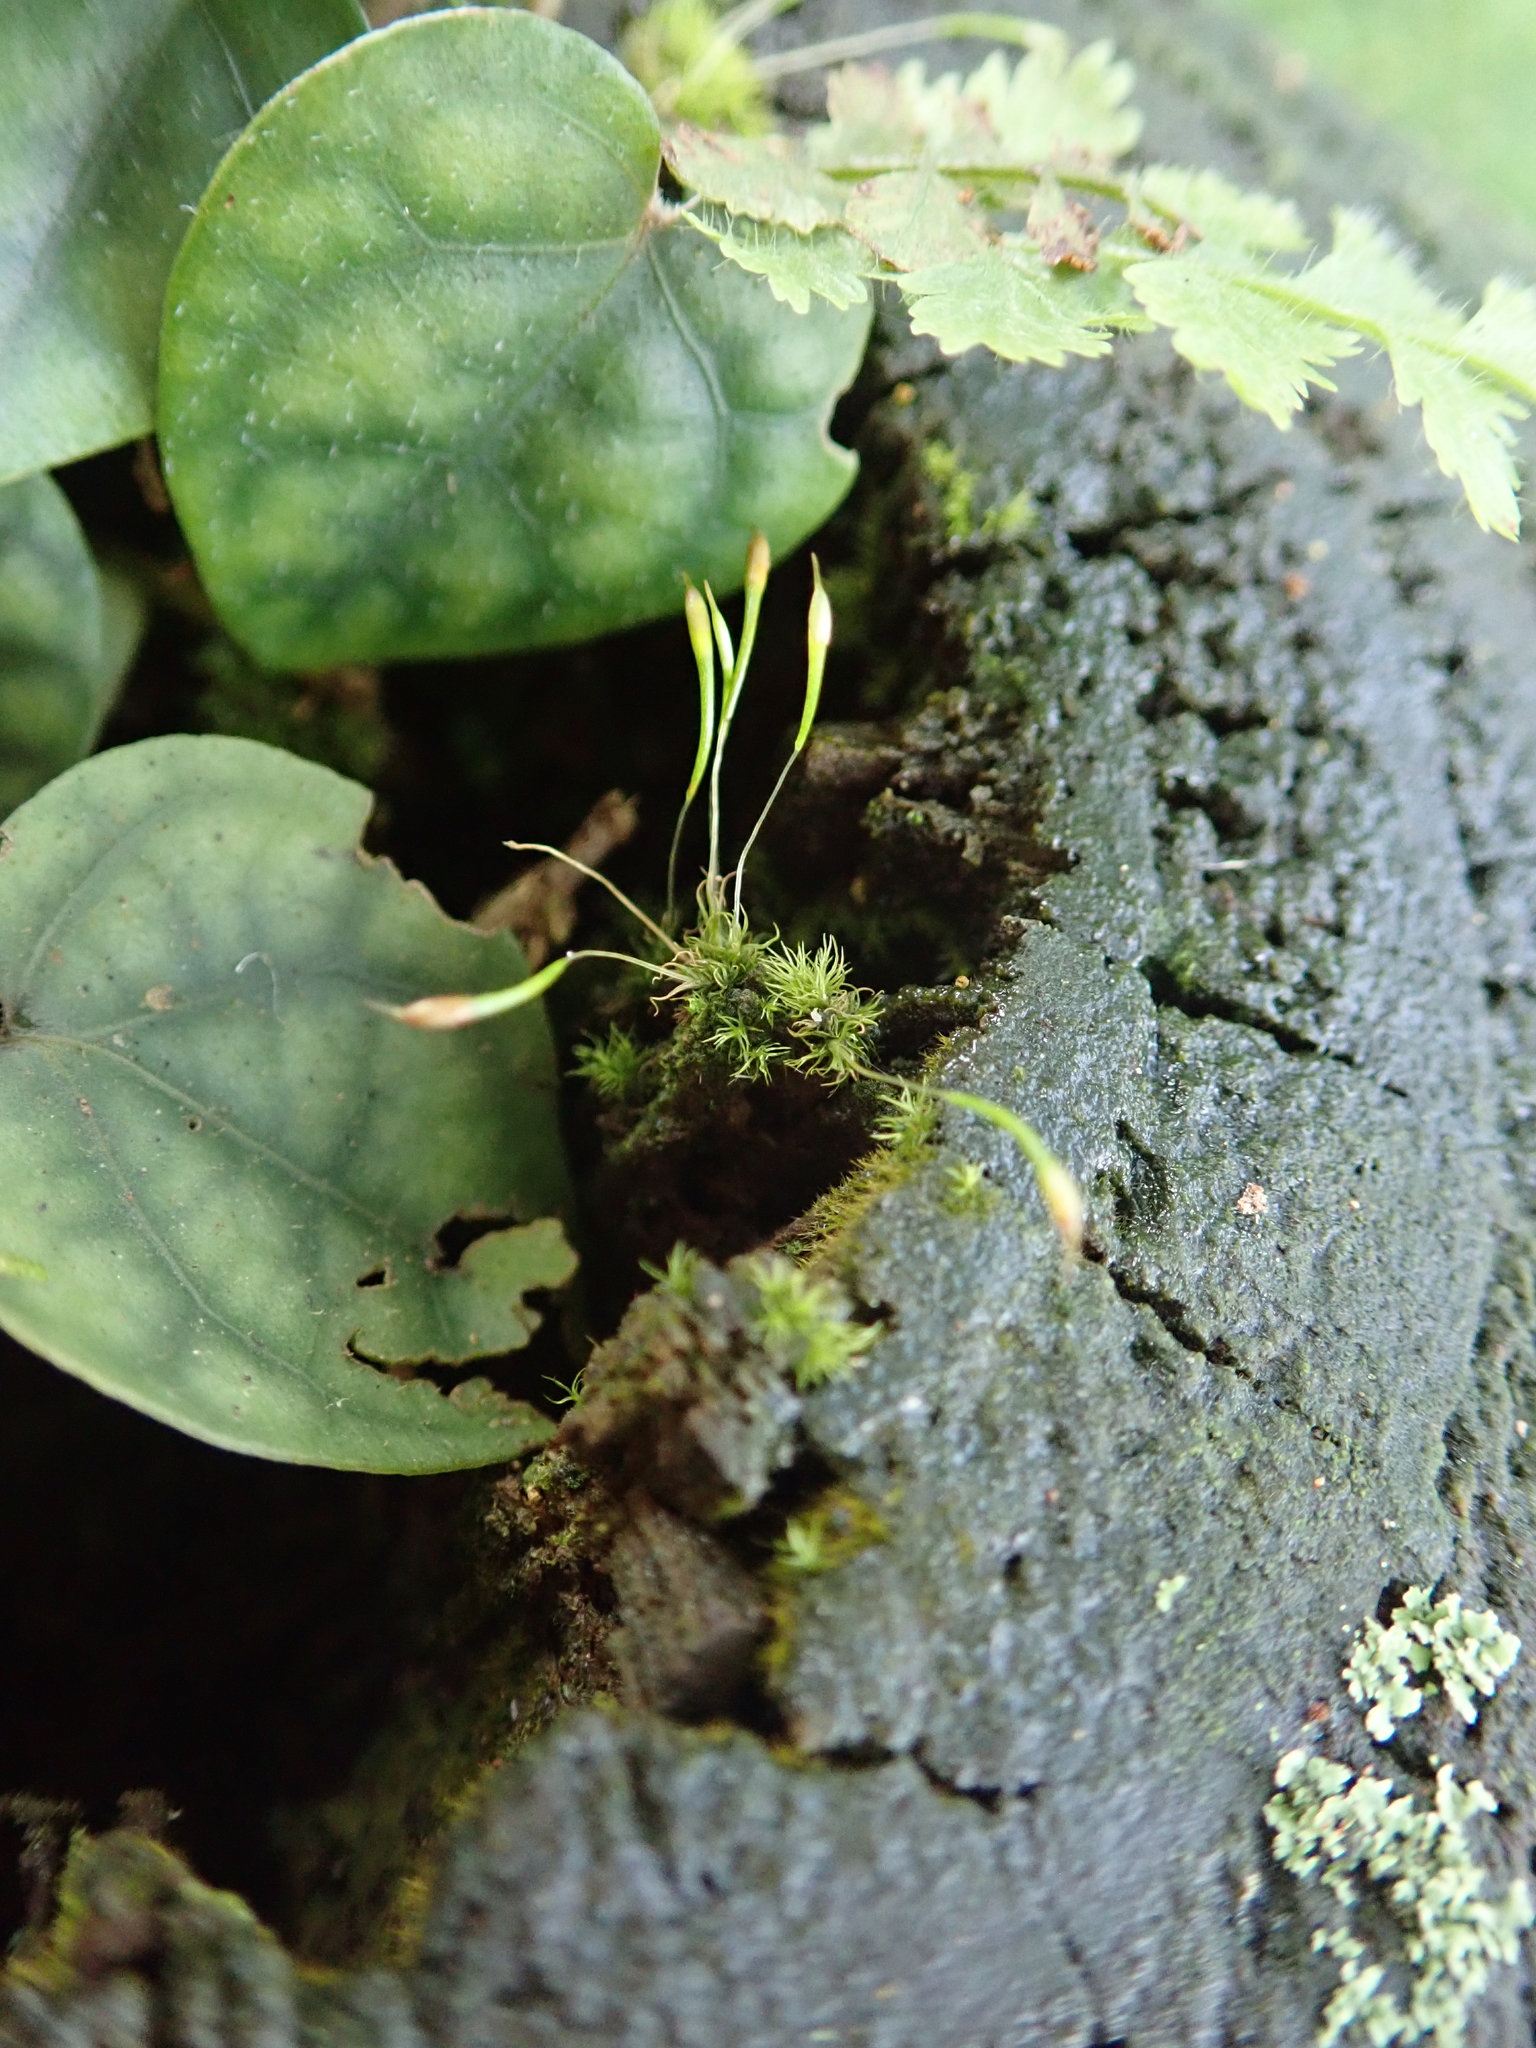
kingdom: Plantae
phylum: Bryophyta
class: Bryopsida
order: Dicranales
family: Bruchiaceae
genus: Trematodon
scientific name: Trematodon longicollis
